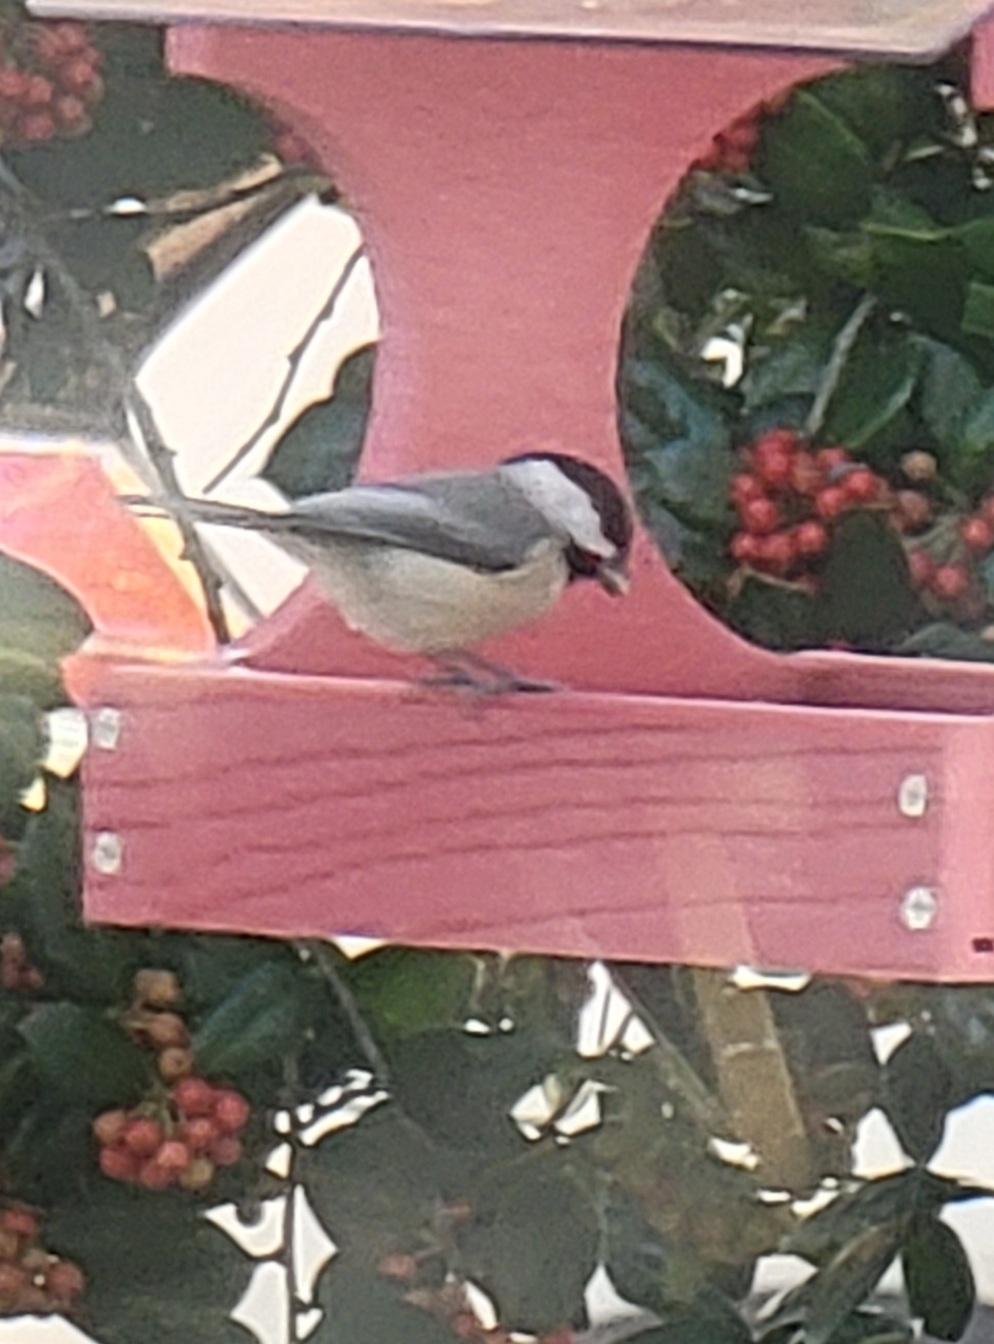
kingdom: Animalia
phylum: Chordata
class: Aves
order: Passeriformes
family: Paridae
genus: Poecile
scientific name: Poecile carolinensis
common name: Carolina chickadee
